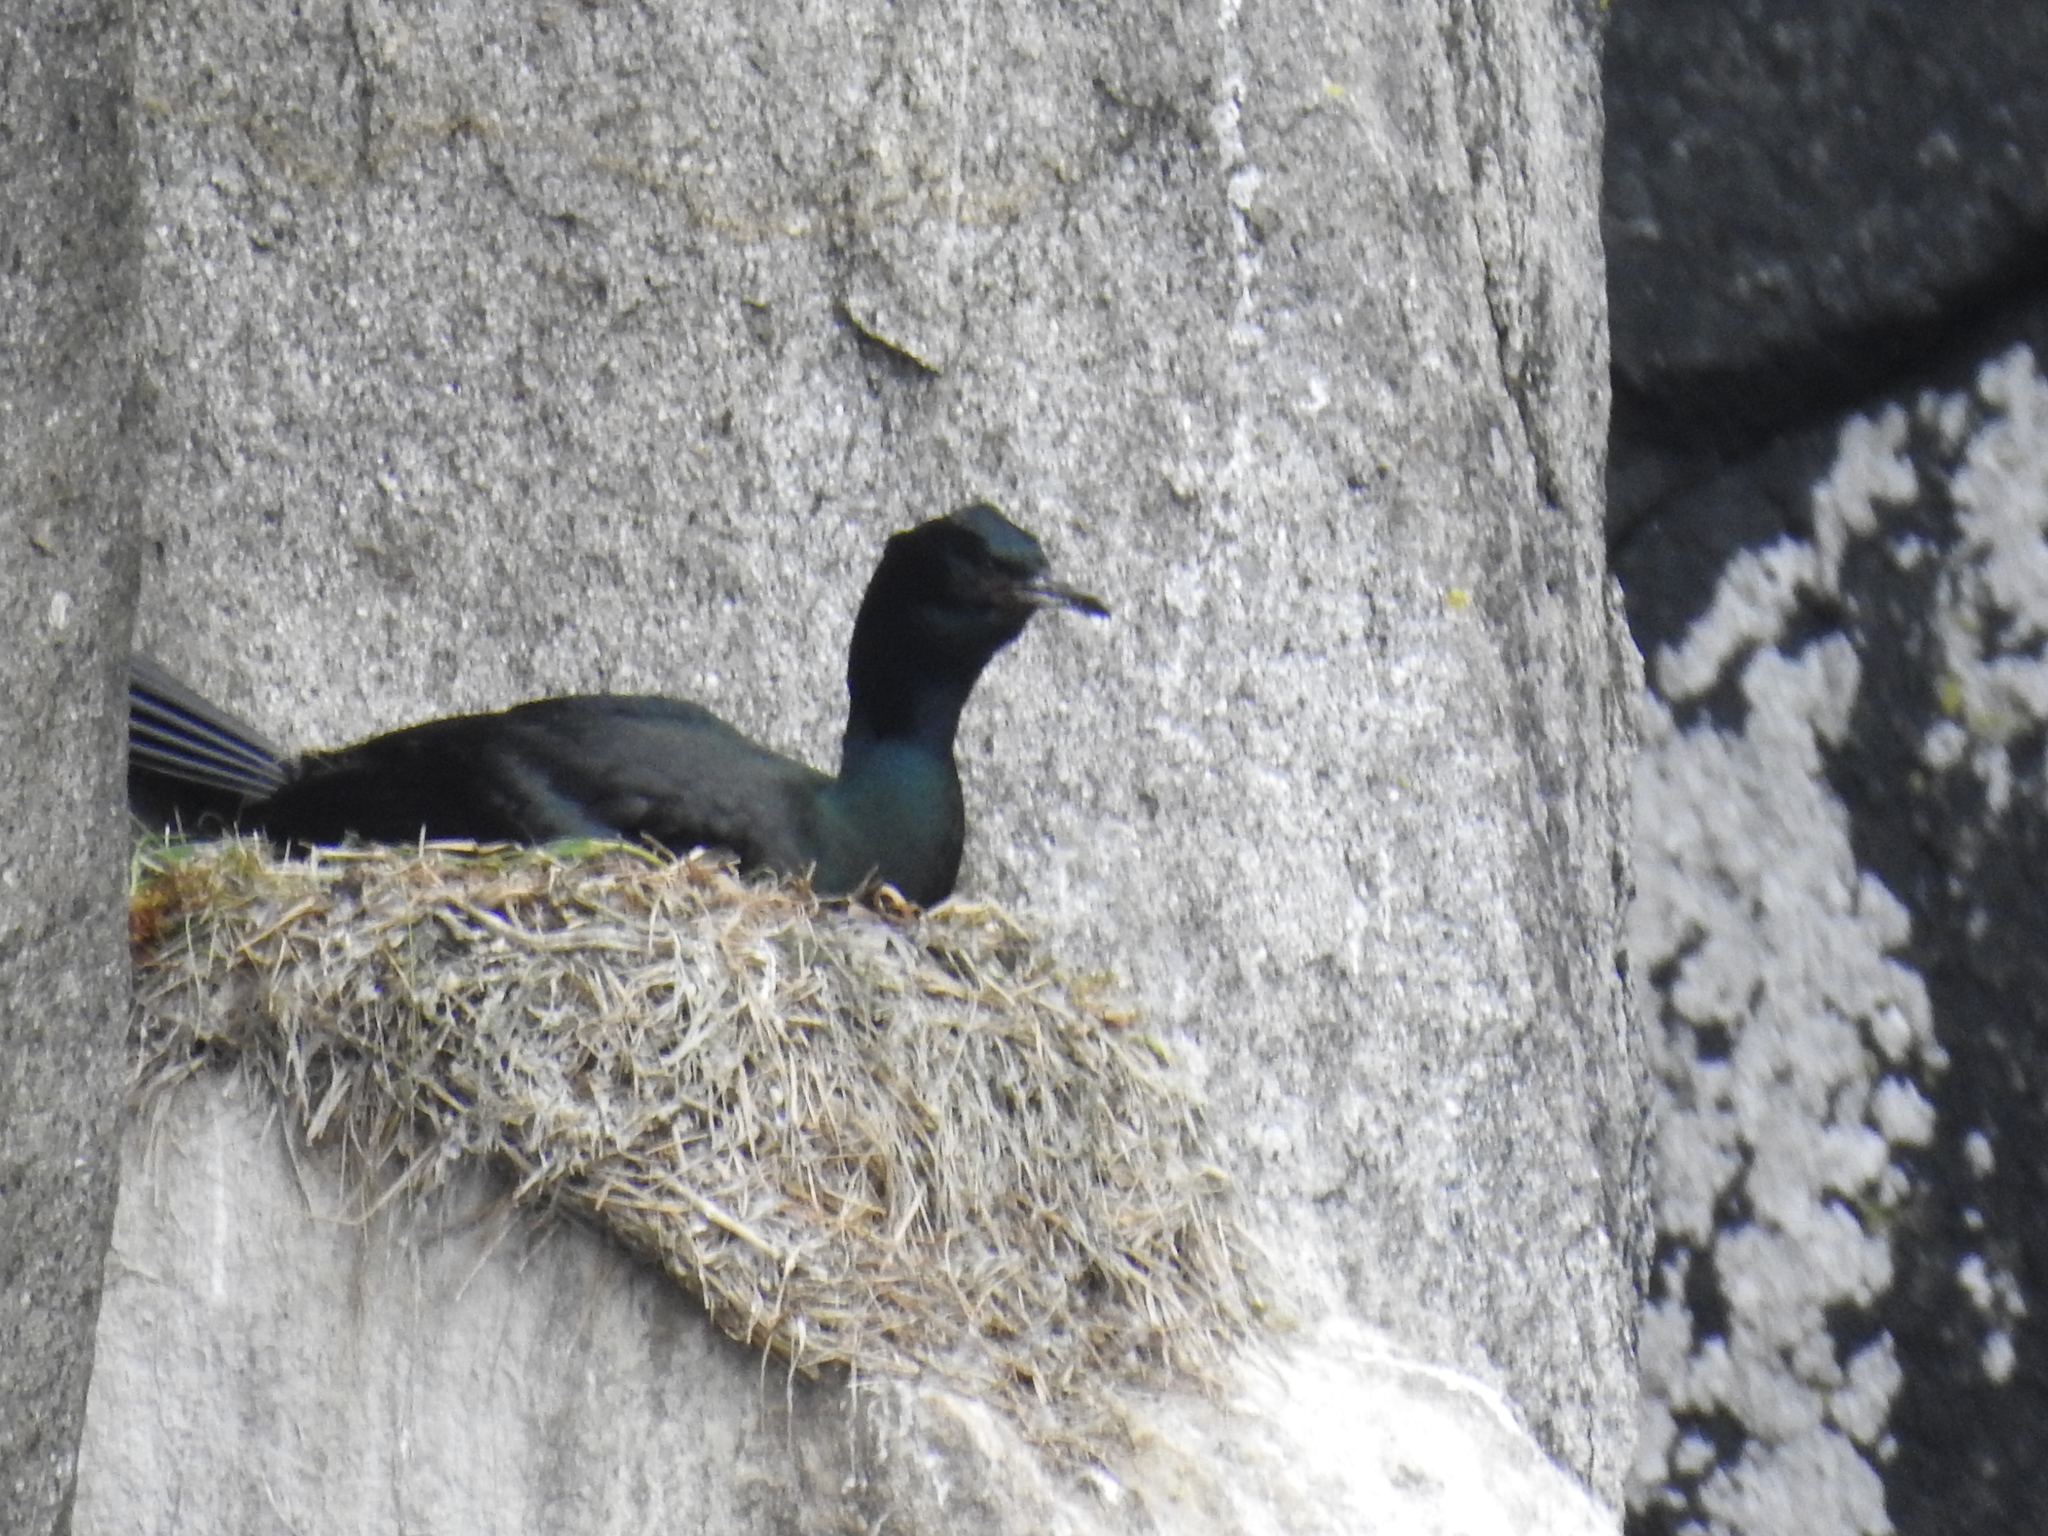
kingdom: Animalia
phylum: Chordata
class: Aves
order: Suliformes
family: Phalacrocoracidae
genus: Phalacrocorax
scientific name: Phalacrocorax pelagicus
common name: Pelagic cormorant
